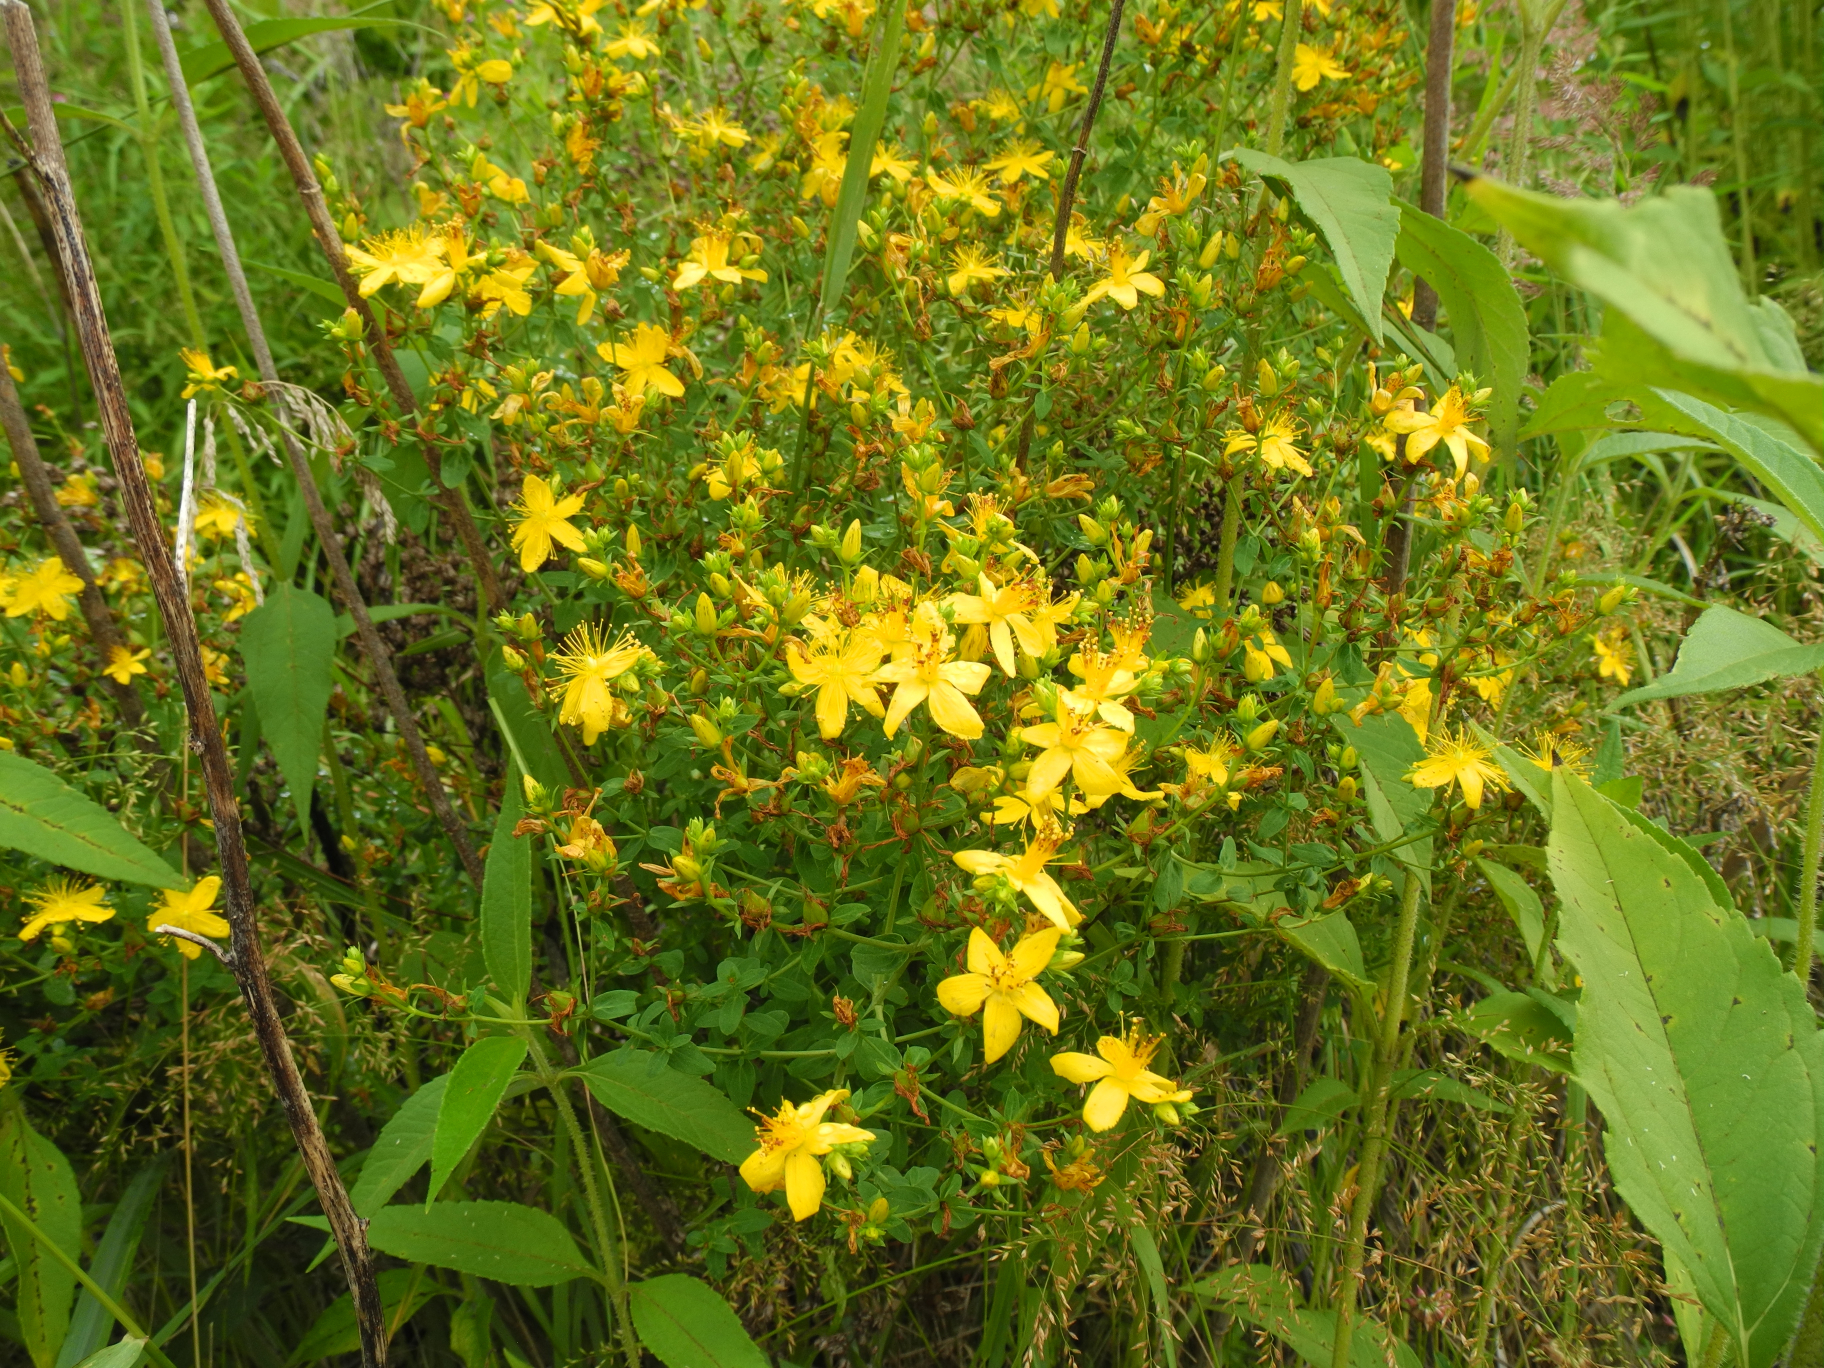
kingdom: Plantae
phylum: Tracheophyta
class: Magnoliopsida
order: Malpighiales
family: Hypericaceae
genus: Hypericum
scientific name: Hypericum perforatum
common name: Common st. johnswort
